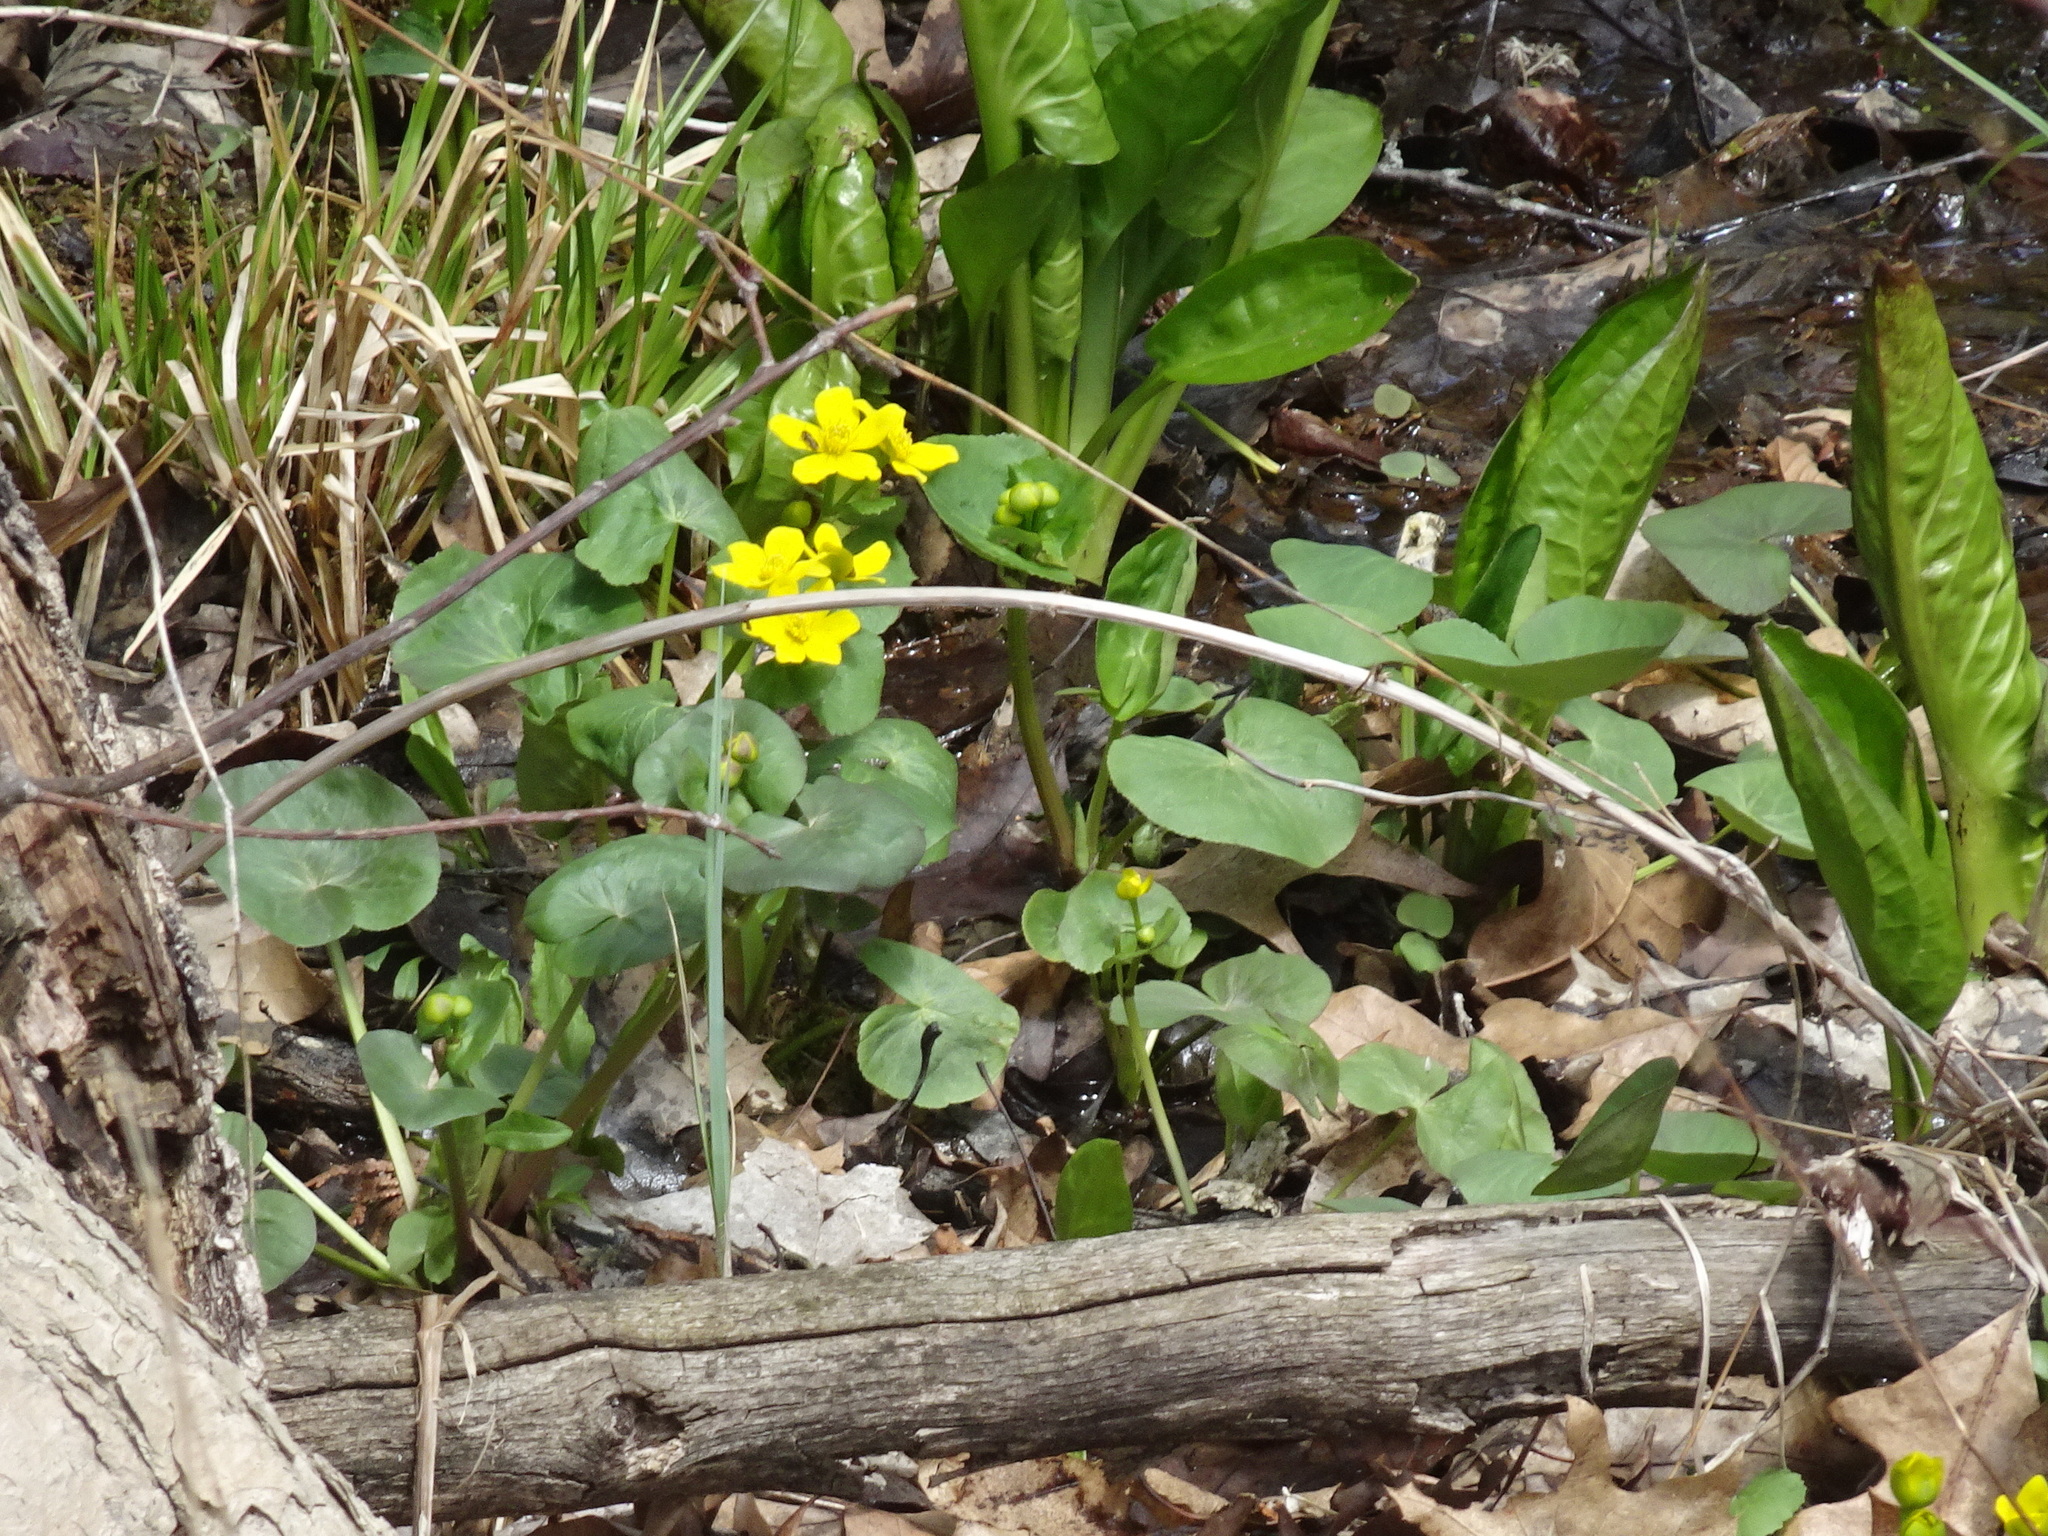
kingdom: Plantae
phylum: Tracheophyta
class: Magnoliopsida
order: Ranunculales
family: Ranunculaceae
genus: Caltha
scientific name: Caltha palustris
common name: Marsh marigold
